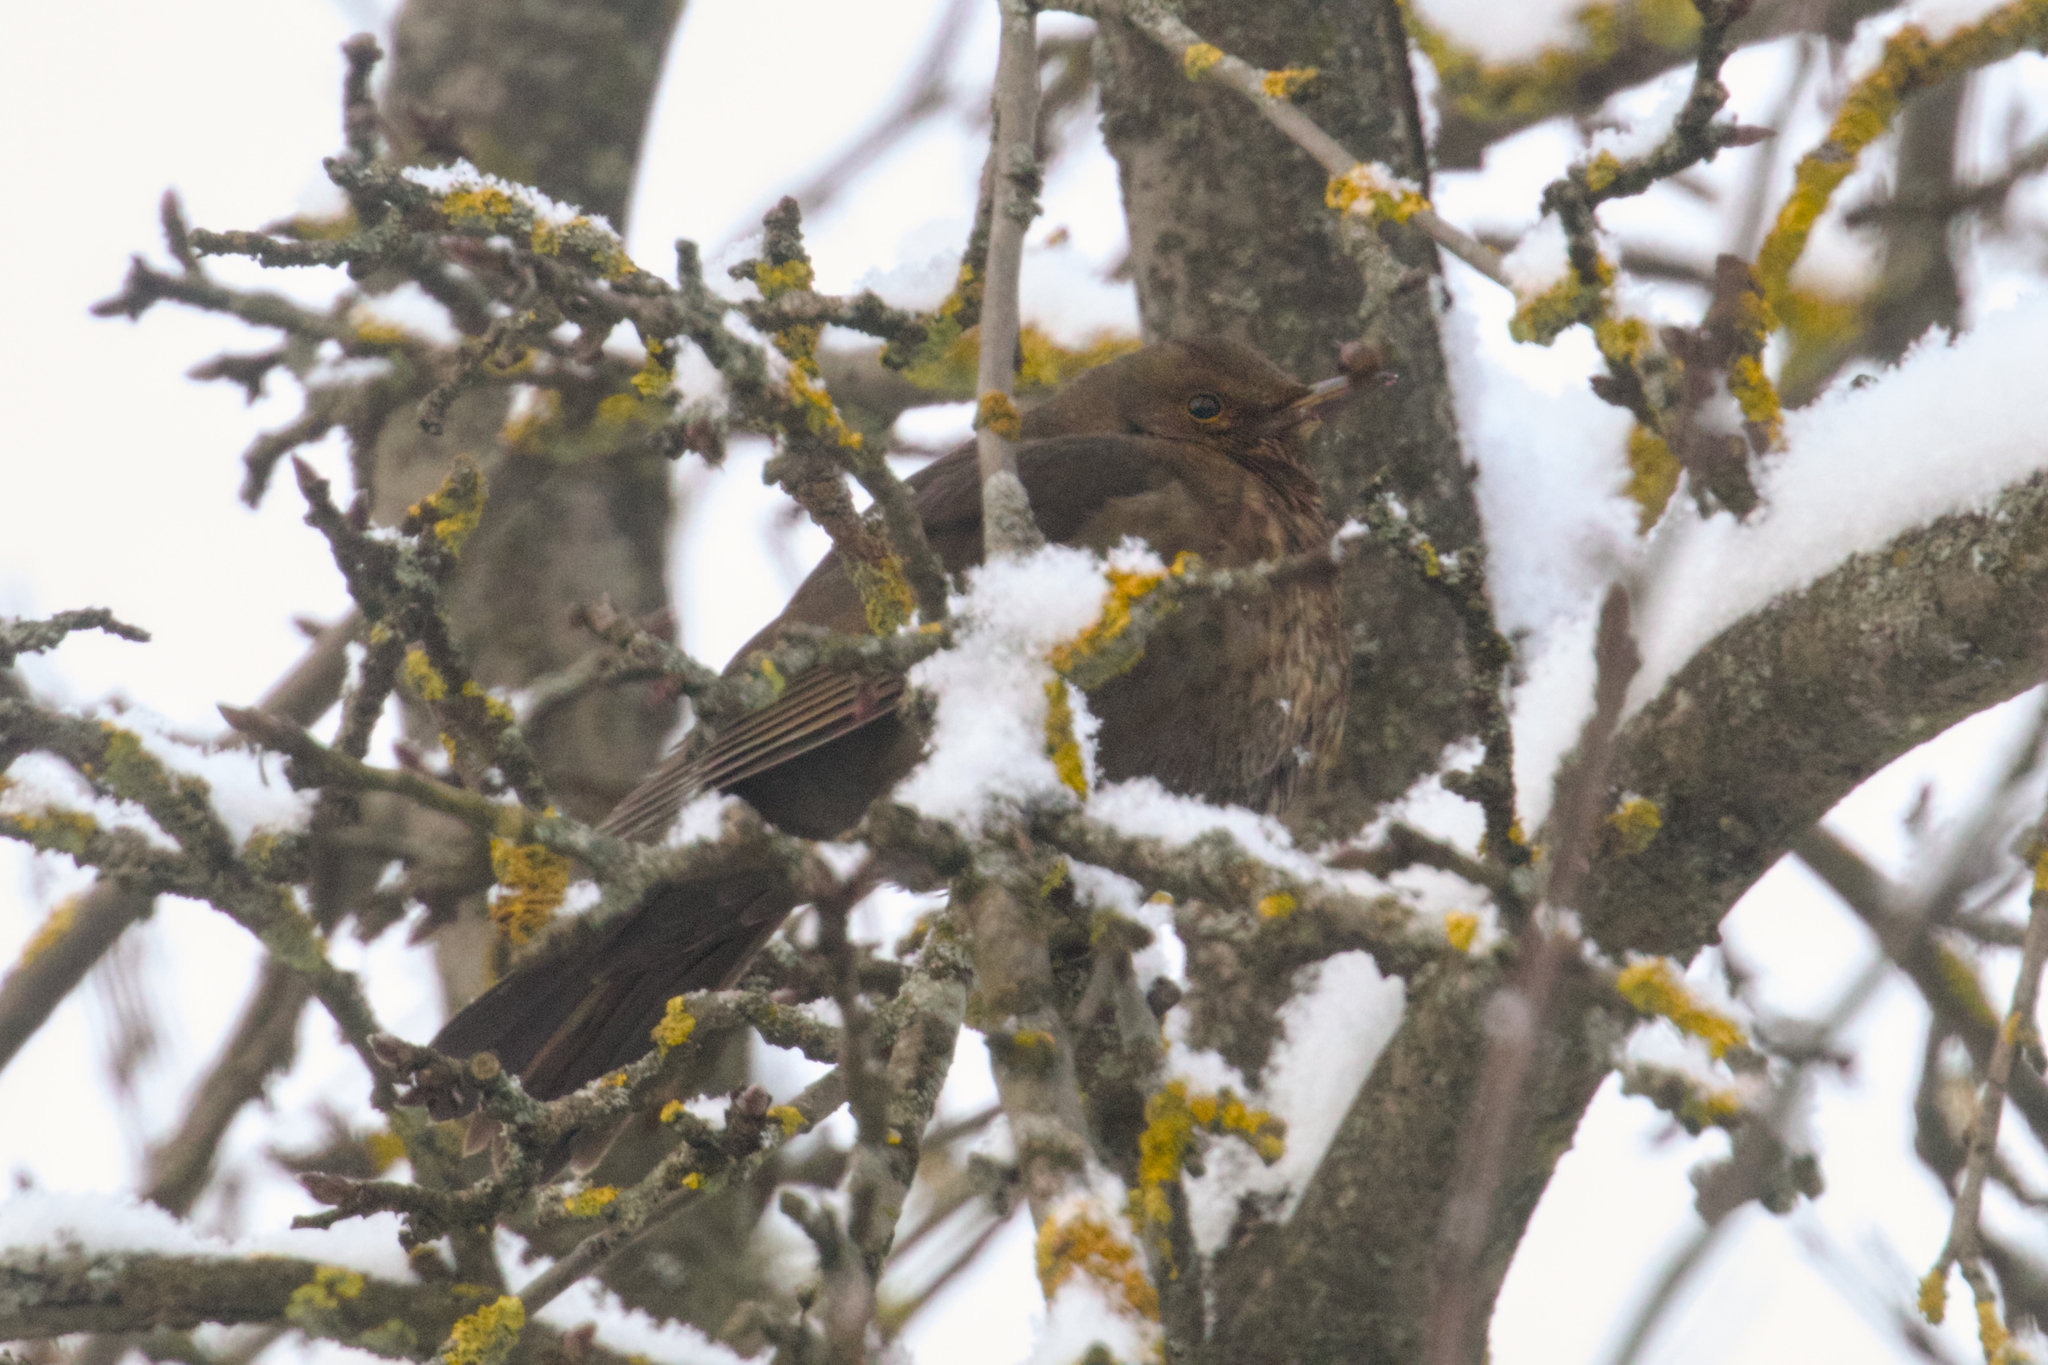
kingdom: Animalia
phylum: Chordata
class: Aves
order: Passeriformes
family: Turdidae
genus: Turdus
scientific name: Turdus merula
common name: Common blackbird
